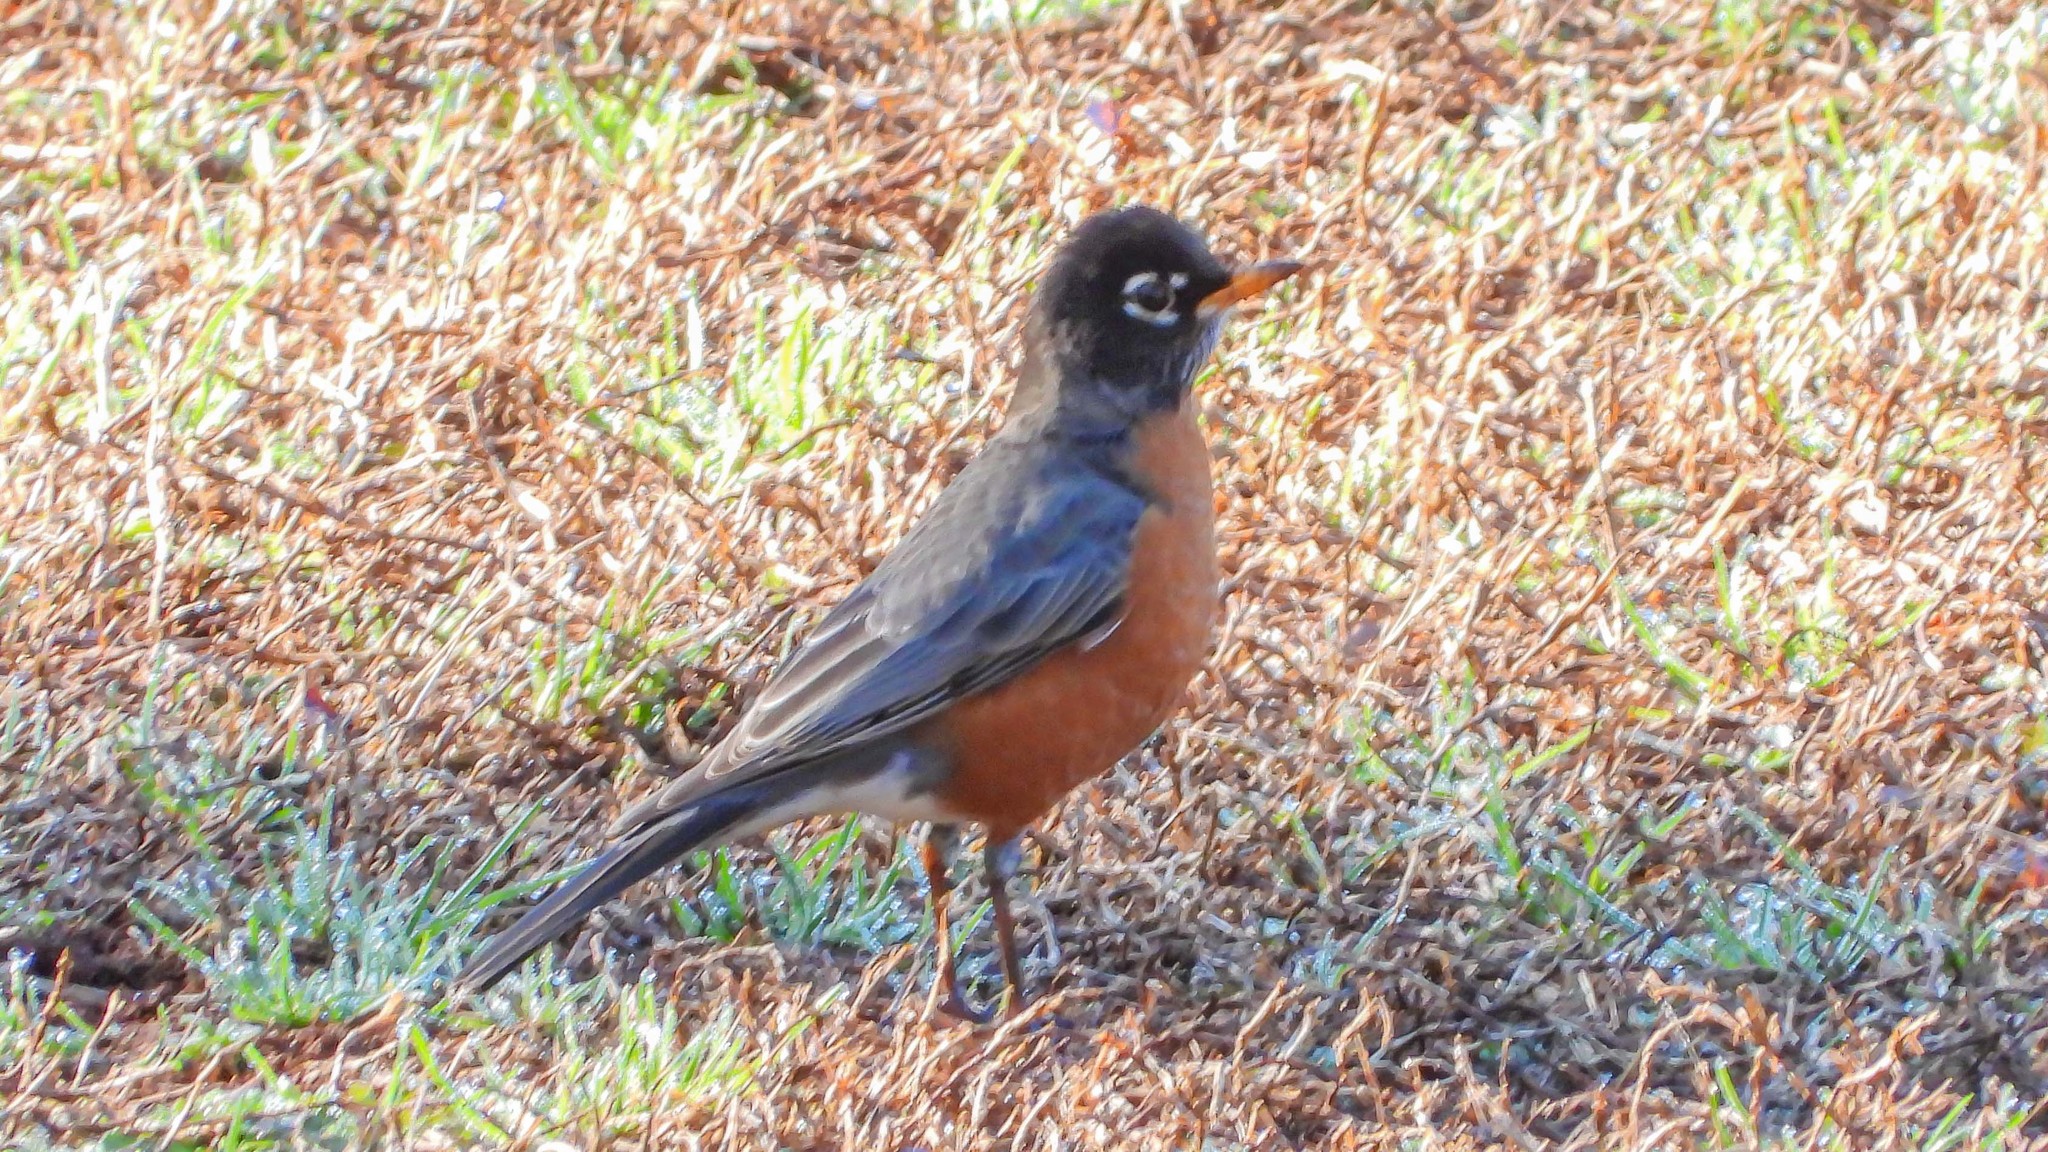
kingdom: Animalia
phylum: Chordata
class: Aves
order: Passeriformes
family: Turdidae
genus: Turdus
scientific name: Turdus migratorius
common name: American robin
